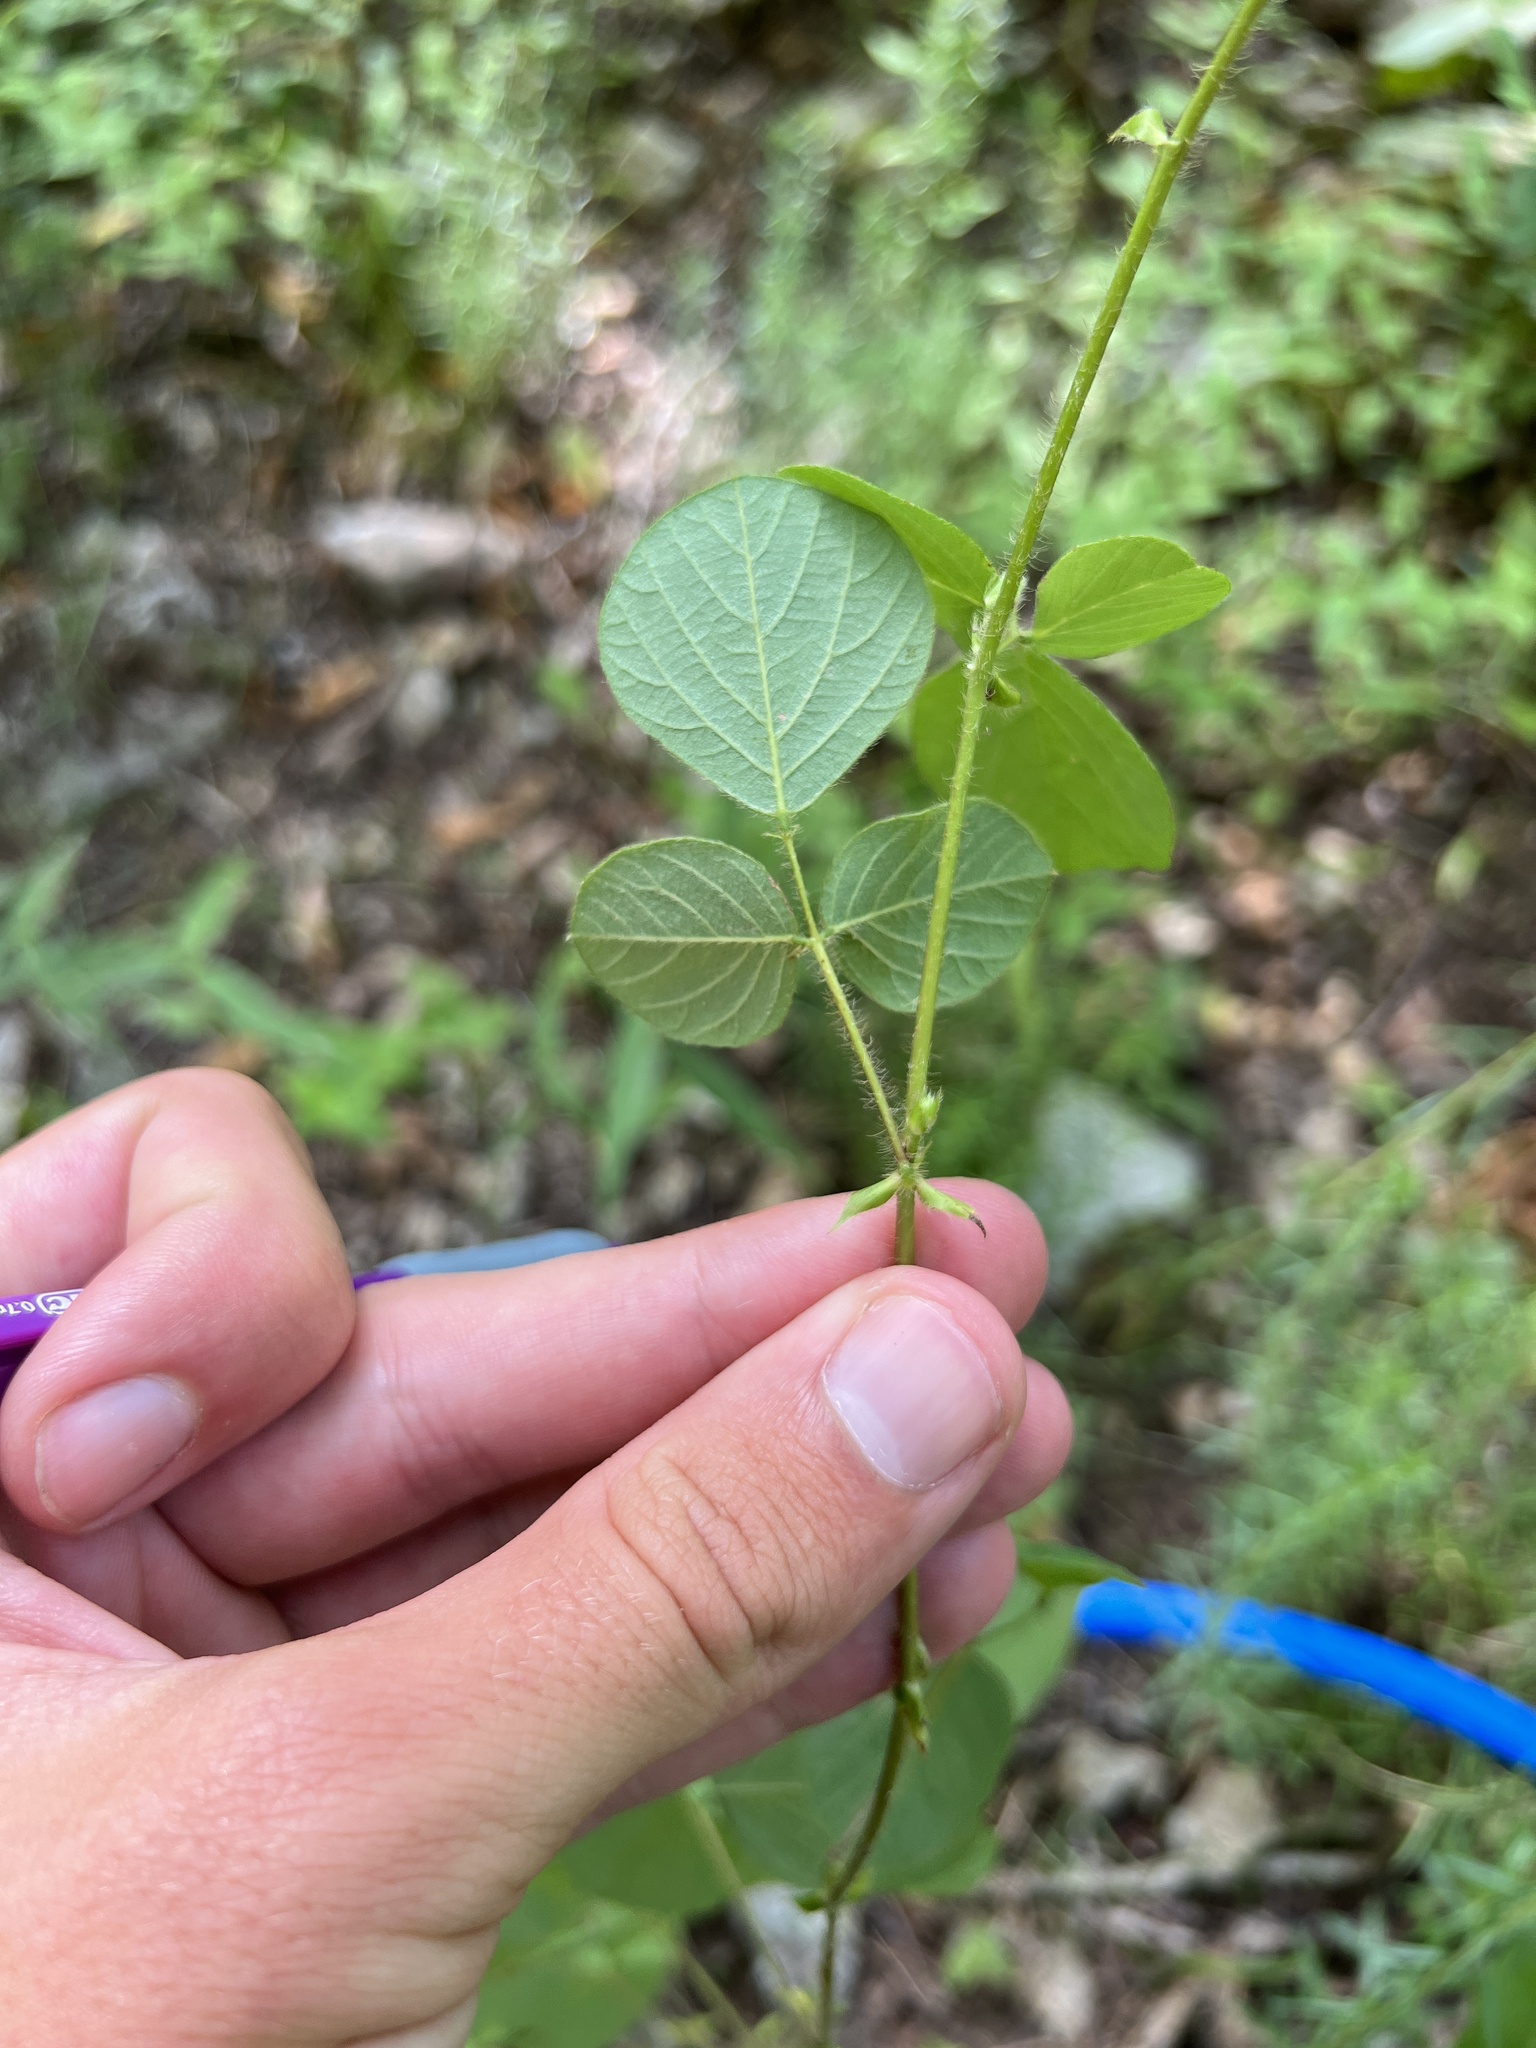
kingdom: Plantae
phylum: Tracheophyta
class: Magnoliopsida
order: Fabales
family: Fabaceae
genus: Desmodium
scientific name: Desmodium rotundifolium
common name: Dollarleaf
